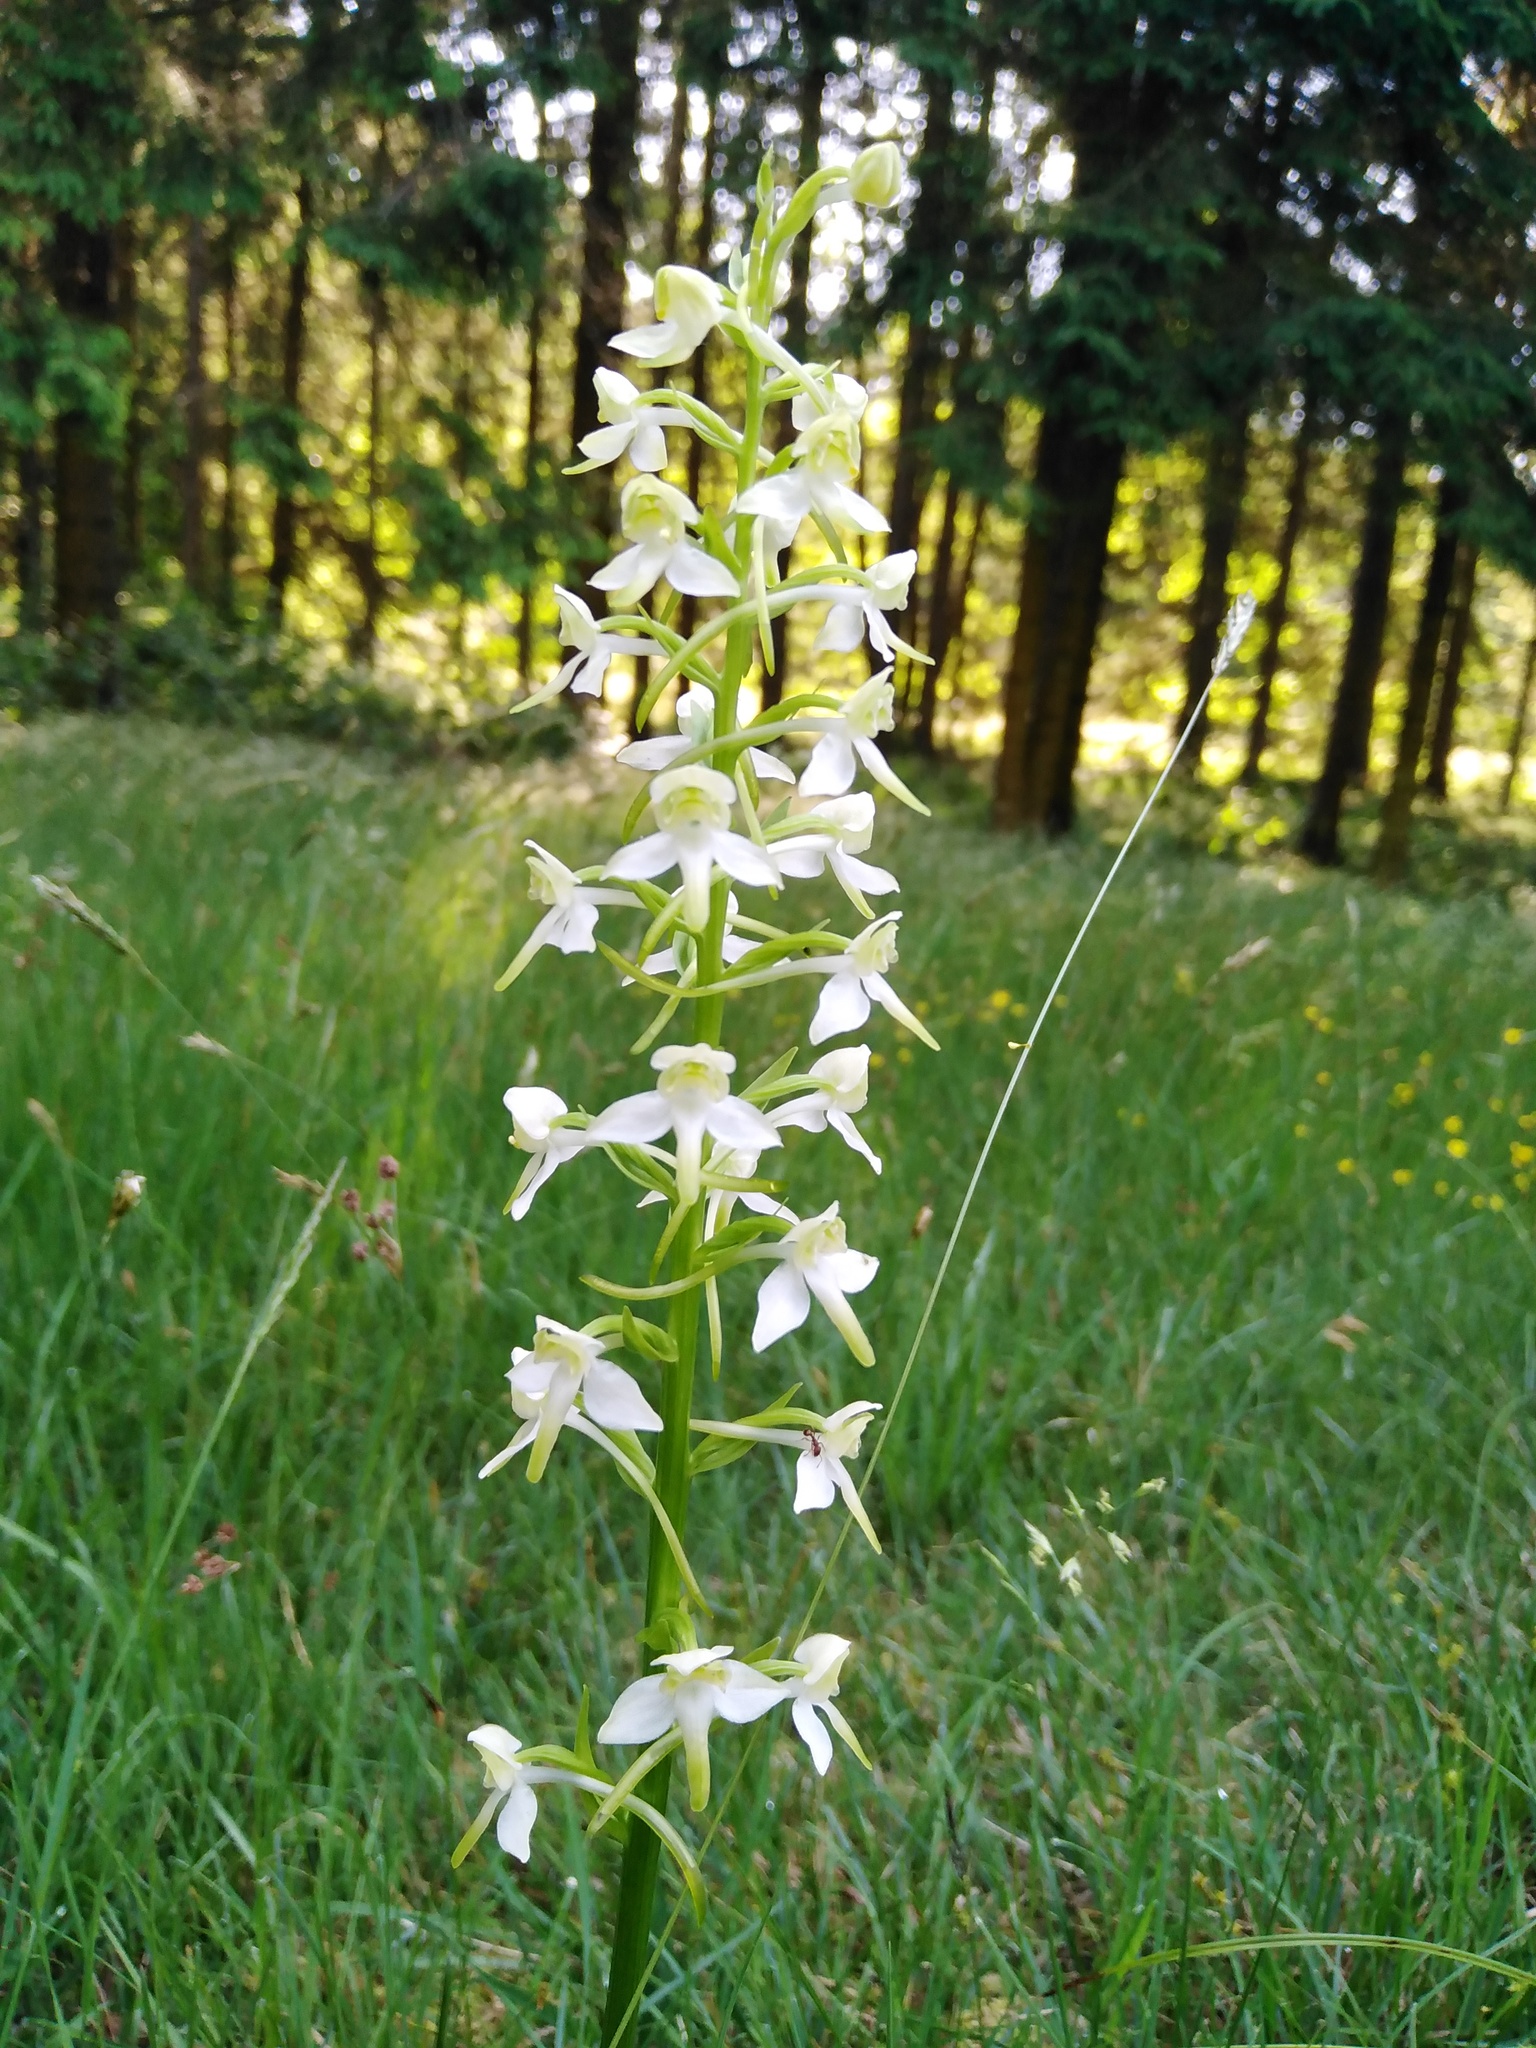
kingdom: Plantae
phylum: Tracheophyta
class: Liliopsida
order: Asparagales
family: Orchidaceae
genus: Platanthera
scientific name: Platanthera chlorantha
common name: Greater butterfly-orchid
